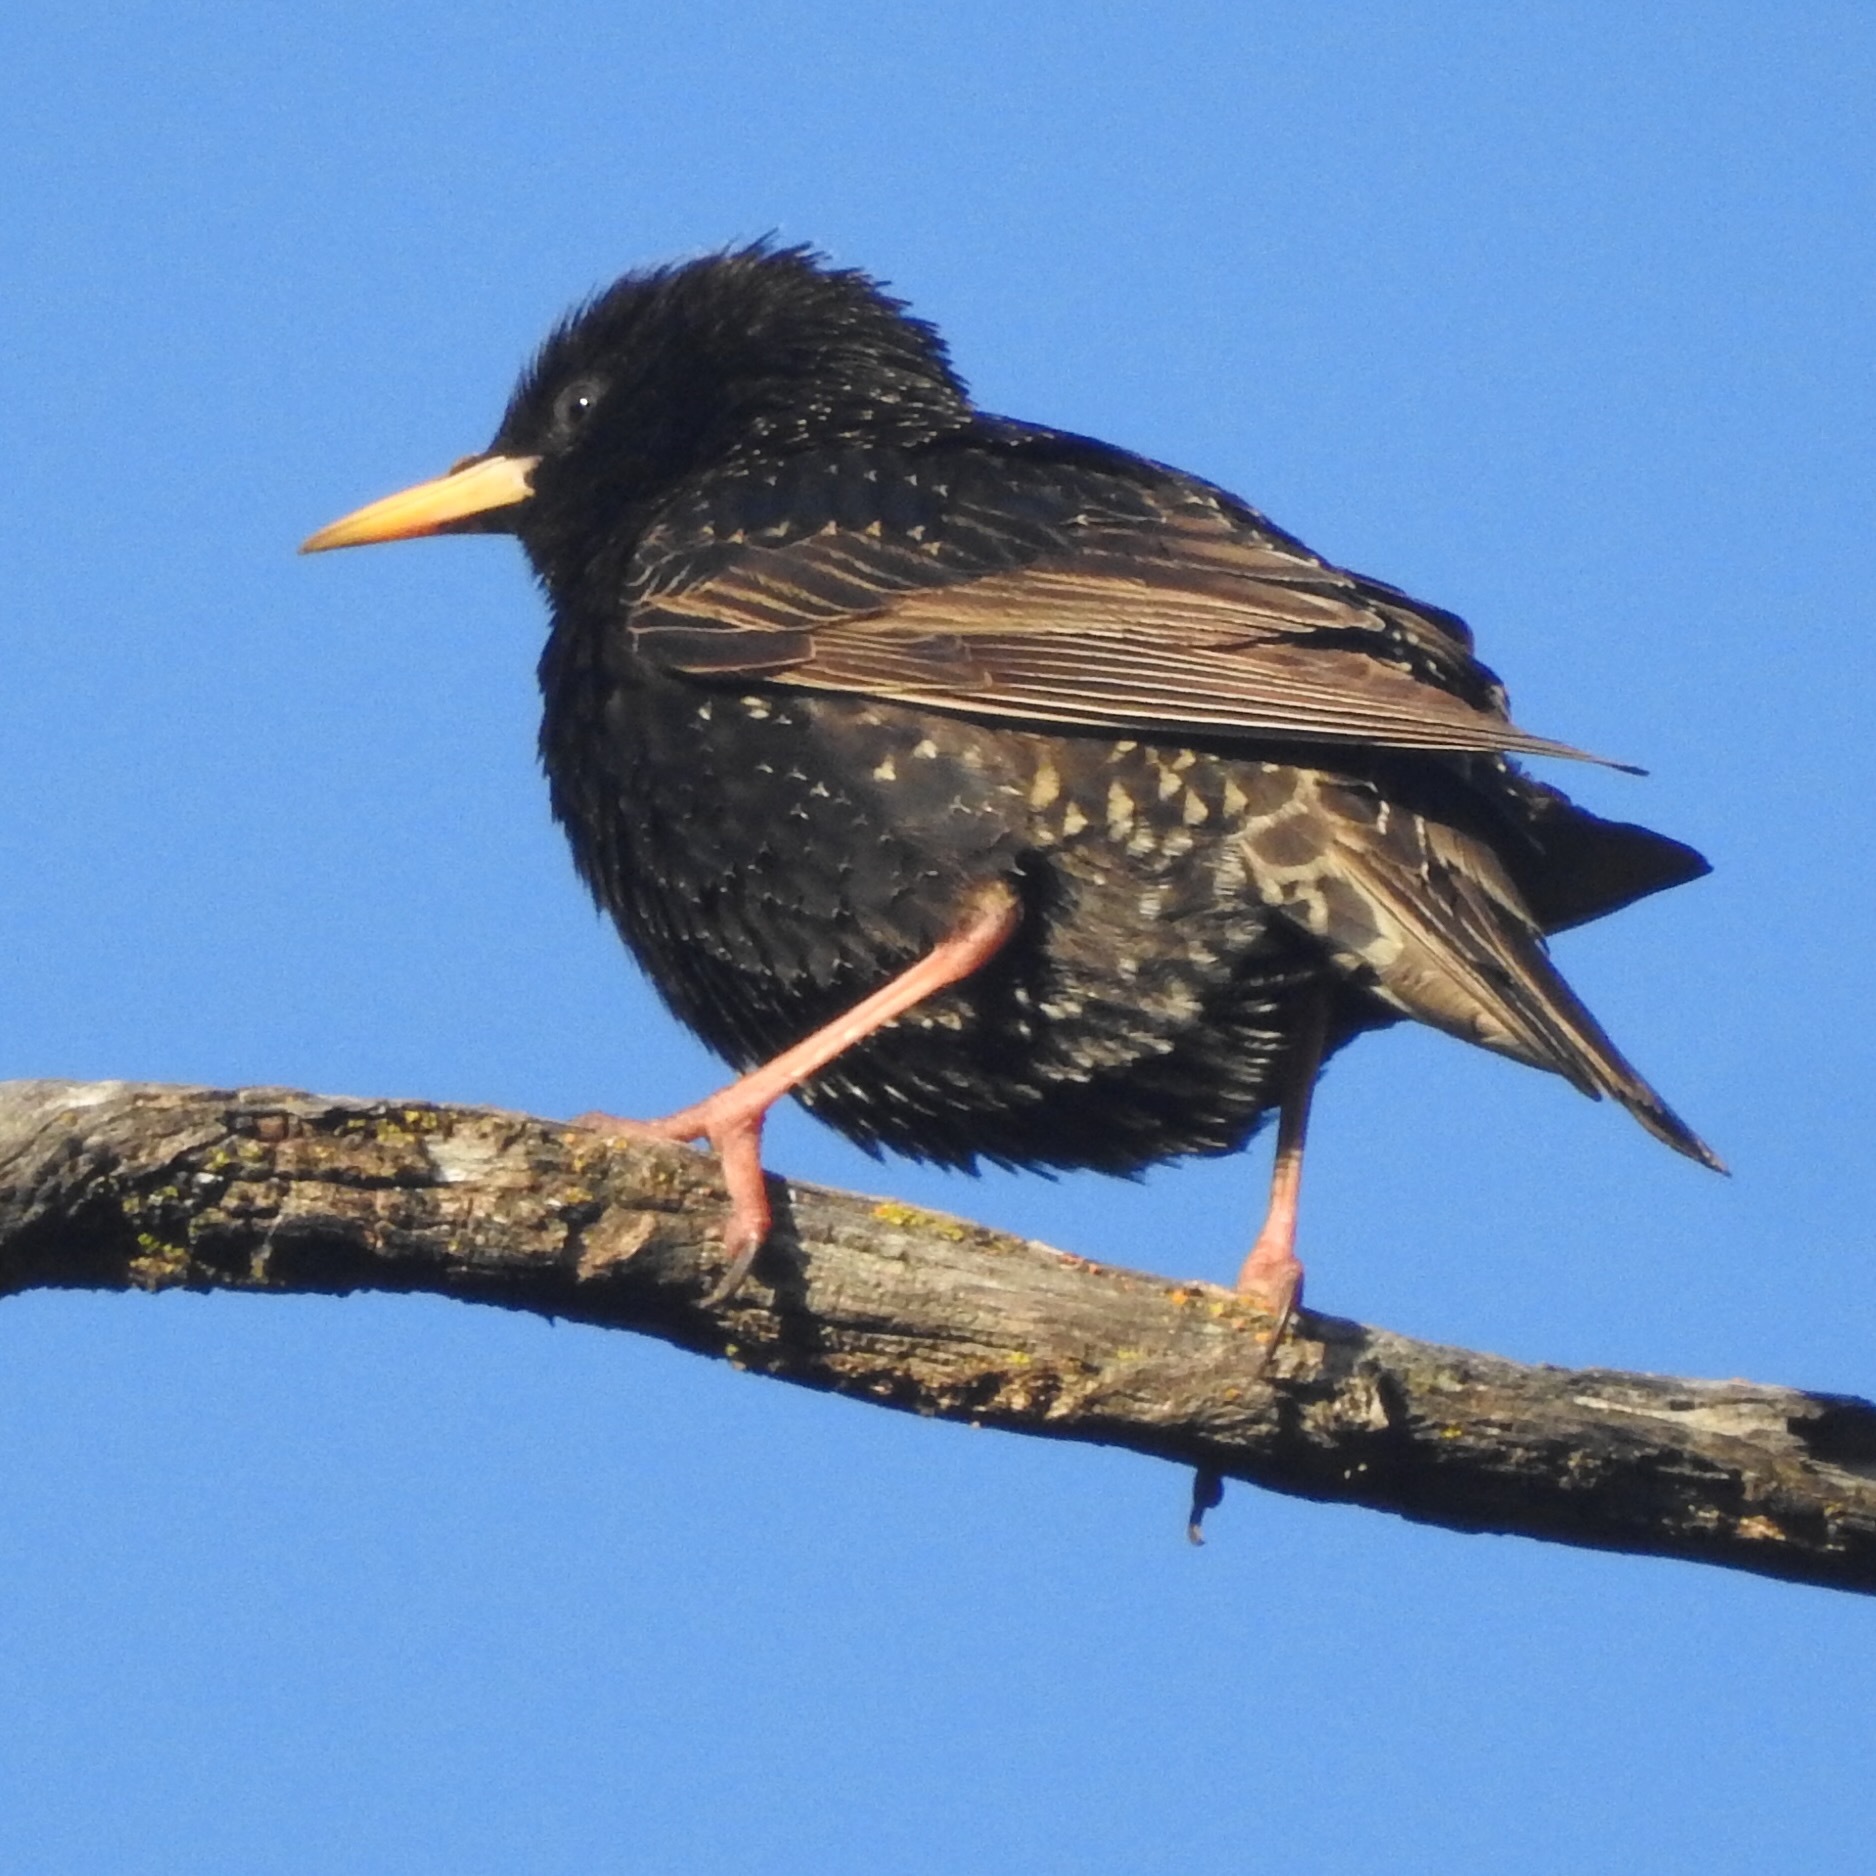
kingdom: Animalia
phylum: Chordata
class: Aves
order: Passeriformes
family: Sturnidae
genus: Sturnus
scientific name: Sturnus vulgaris
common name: Common starling
